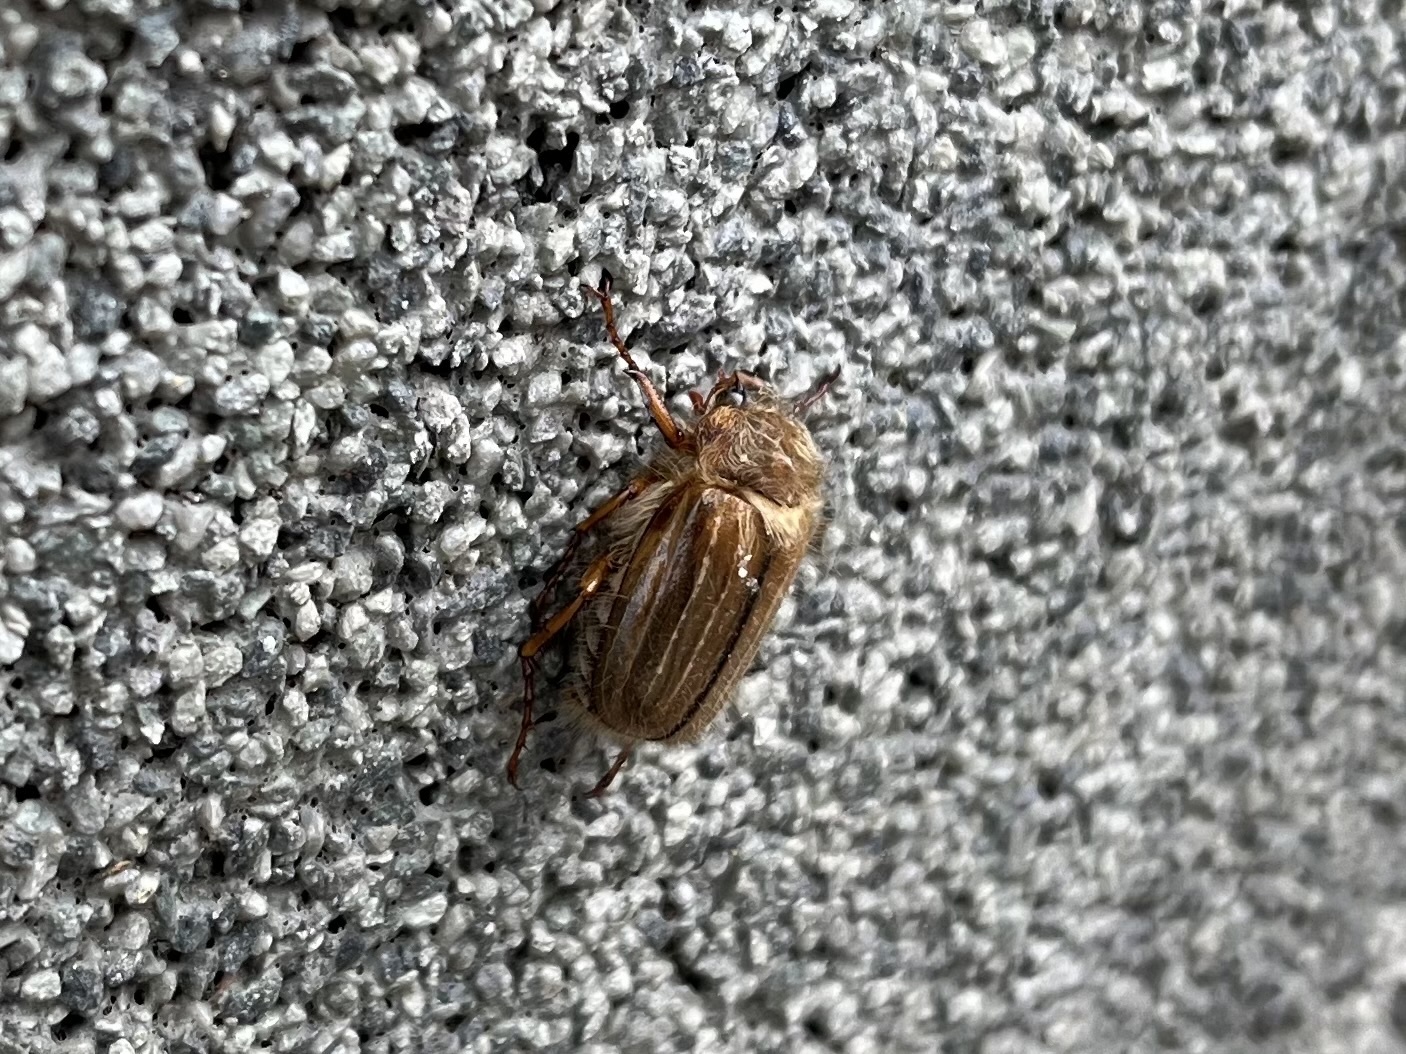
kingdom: Animalia
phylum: Arthropoda
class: Insecta
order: Coleoptera
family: Scarabaeidae
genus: Amphimallon
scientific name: Amphimallon solstitiale
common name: Summer chafer
